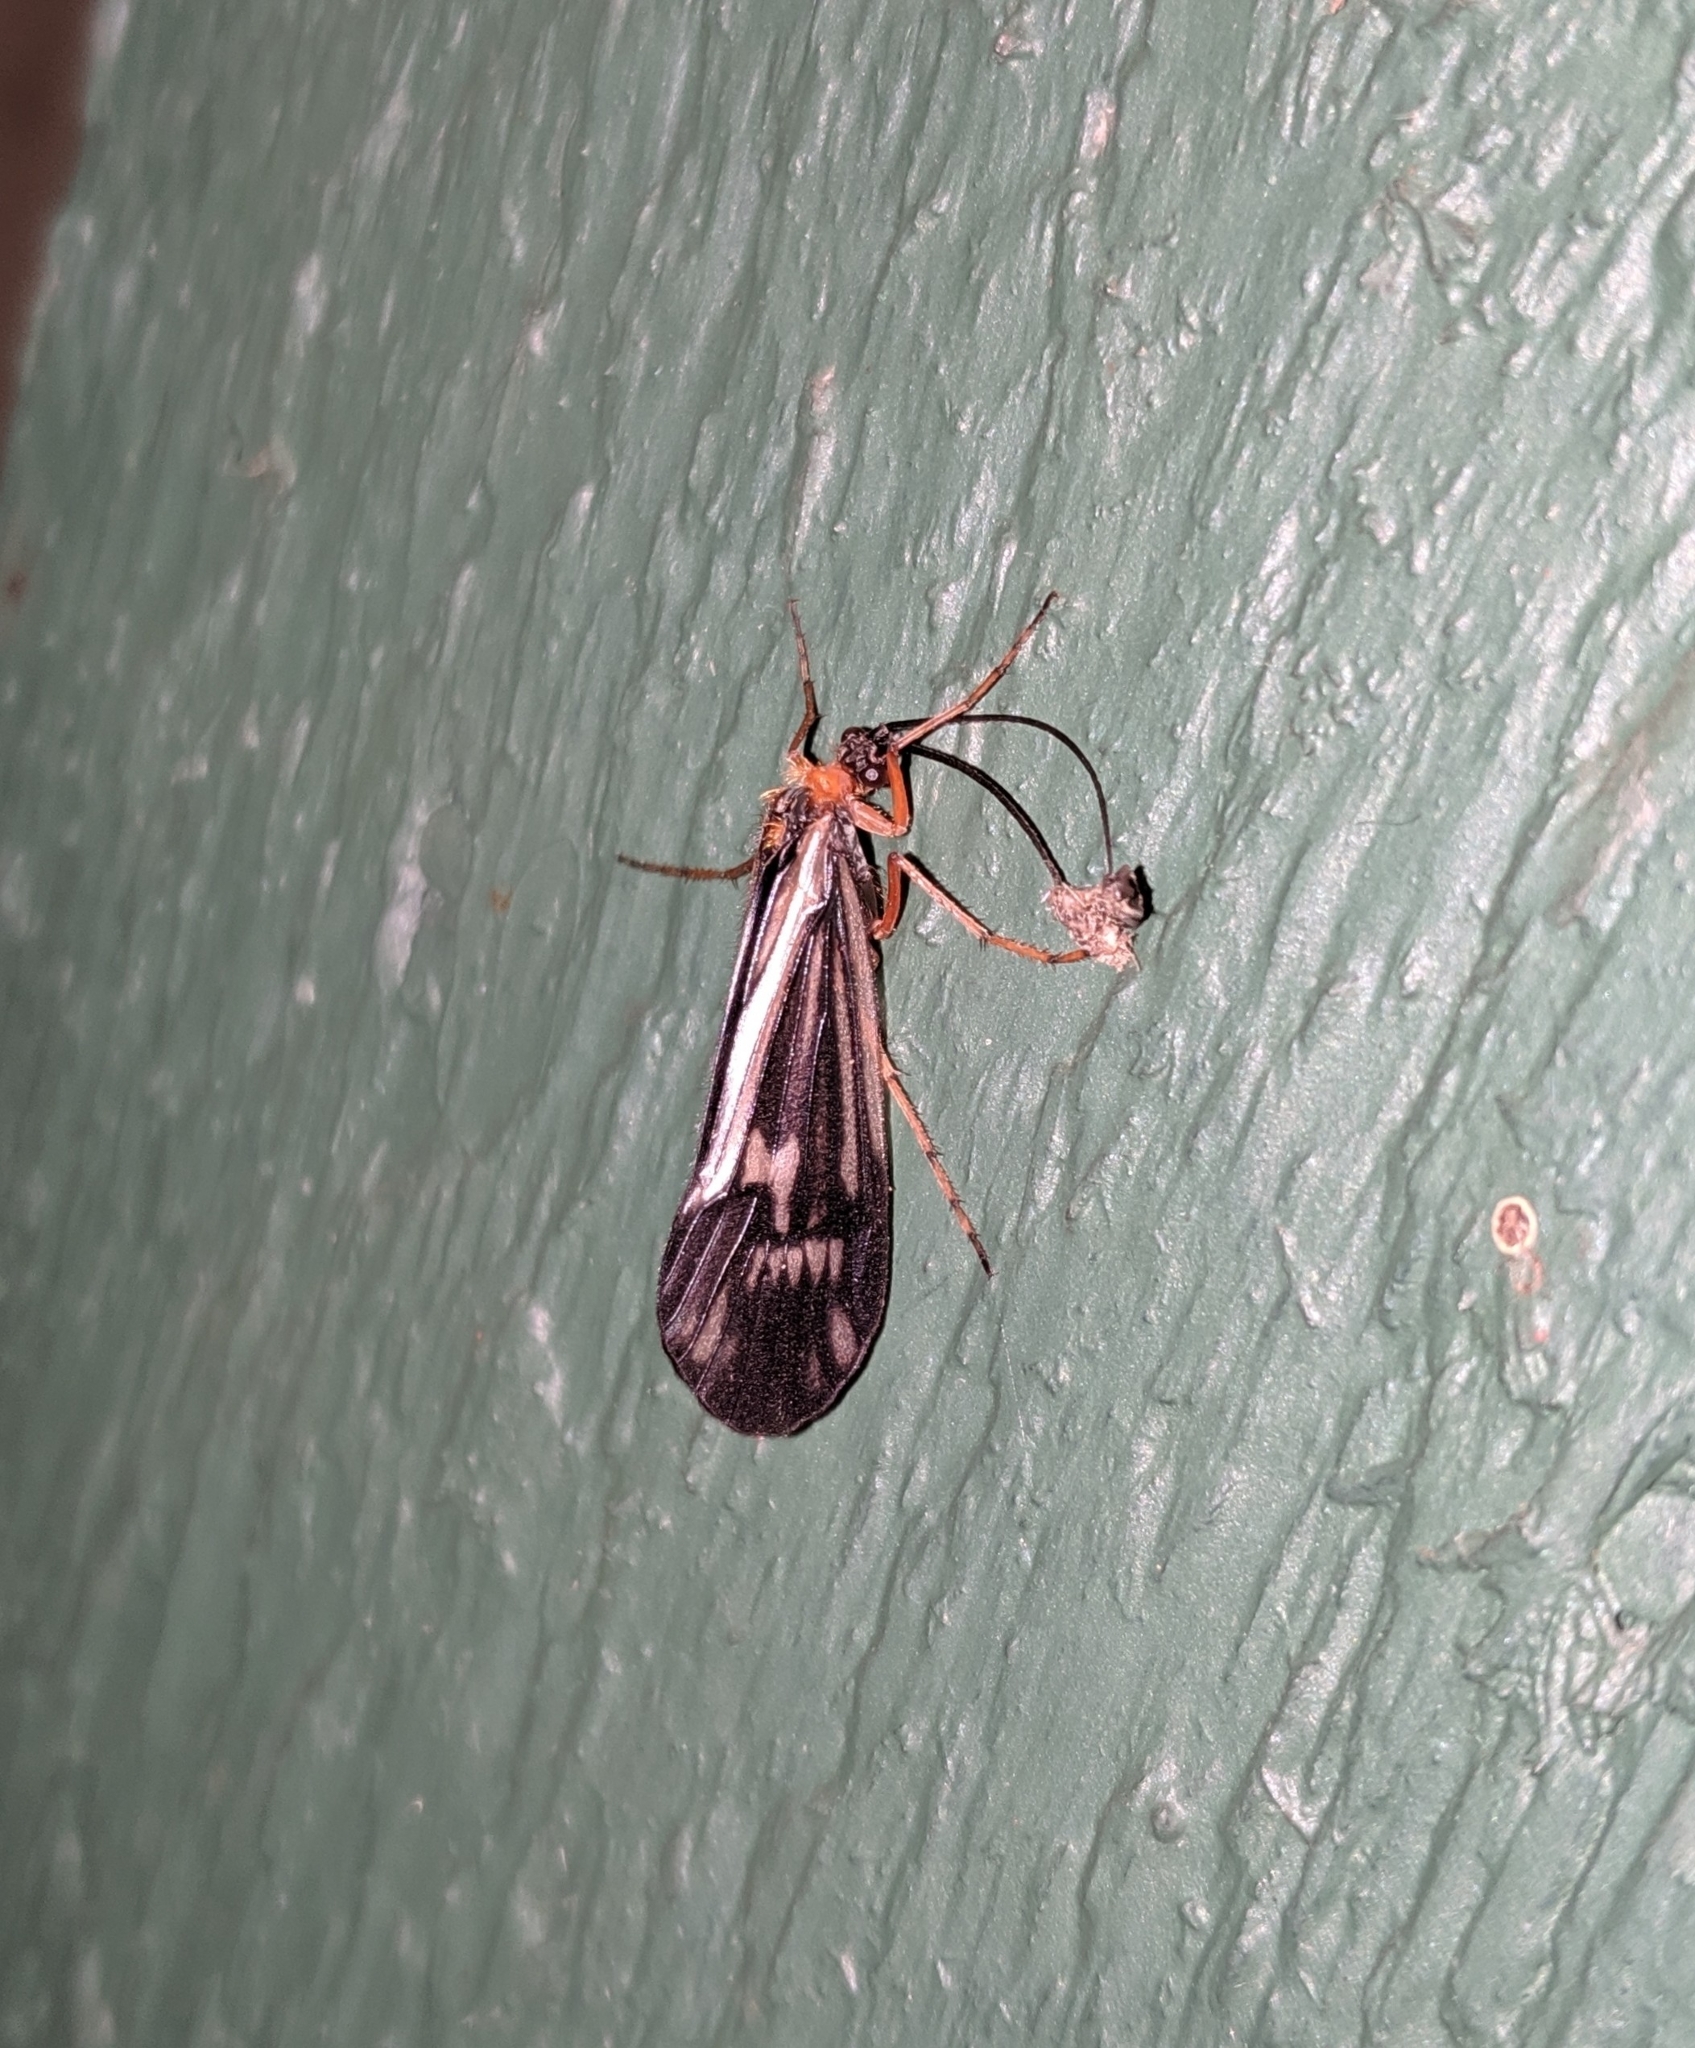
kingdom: Animalia
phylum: Arthropoda
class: Insecta
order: Trichoptera
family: Limnephilidae
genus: Halesochila
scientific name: Halesochila taylori
